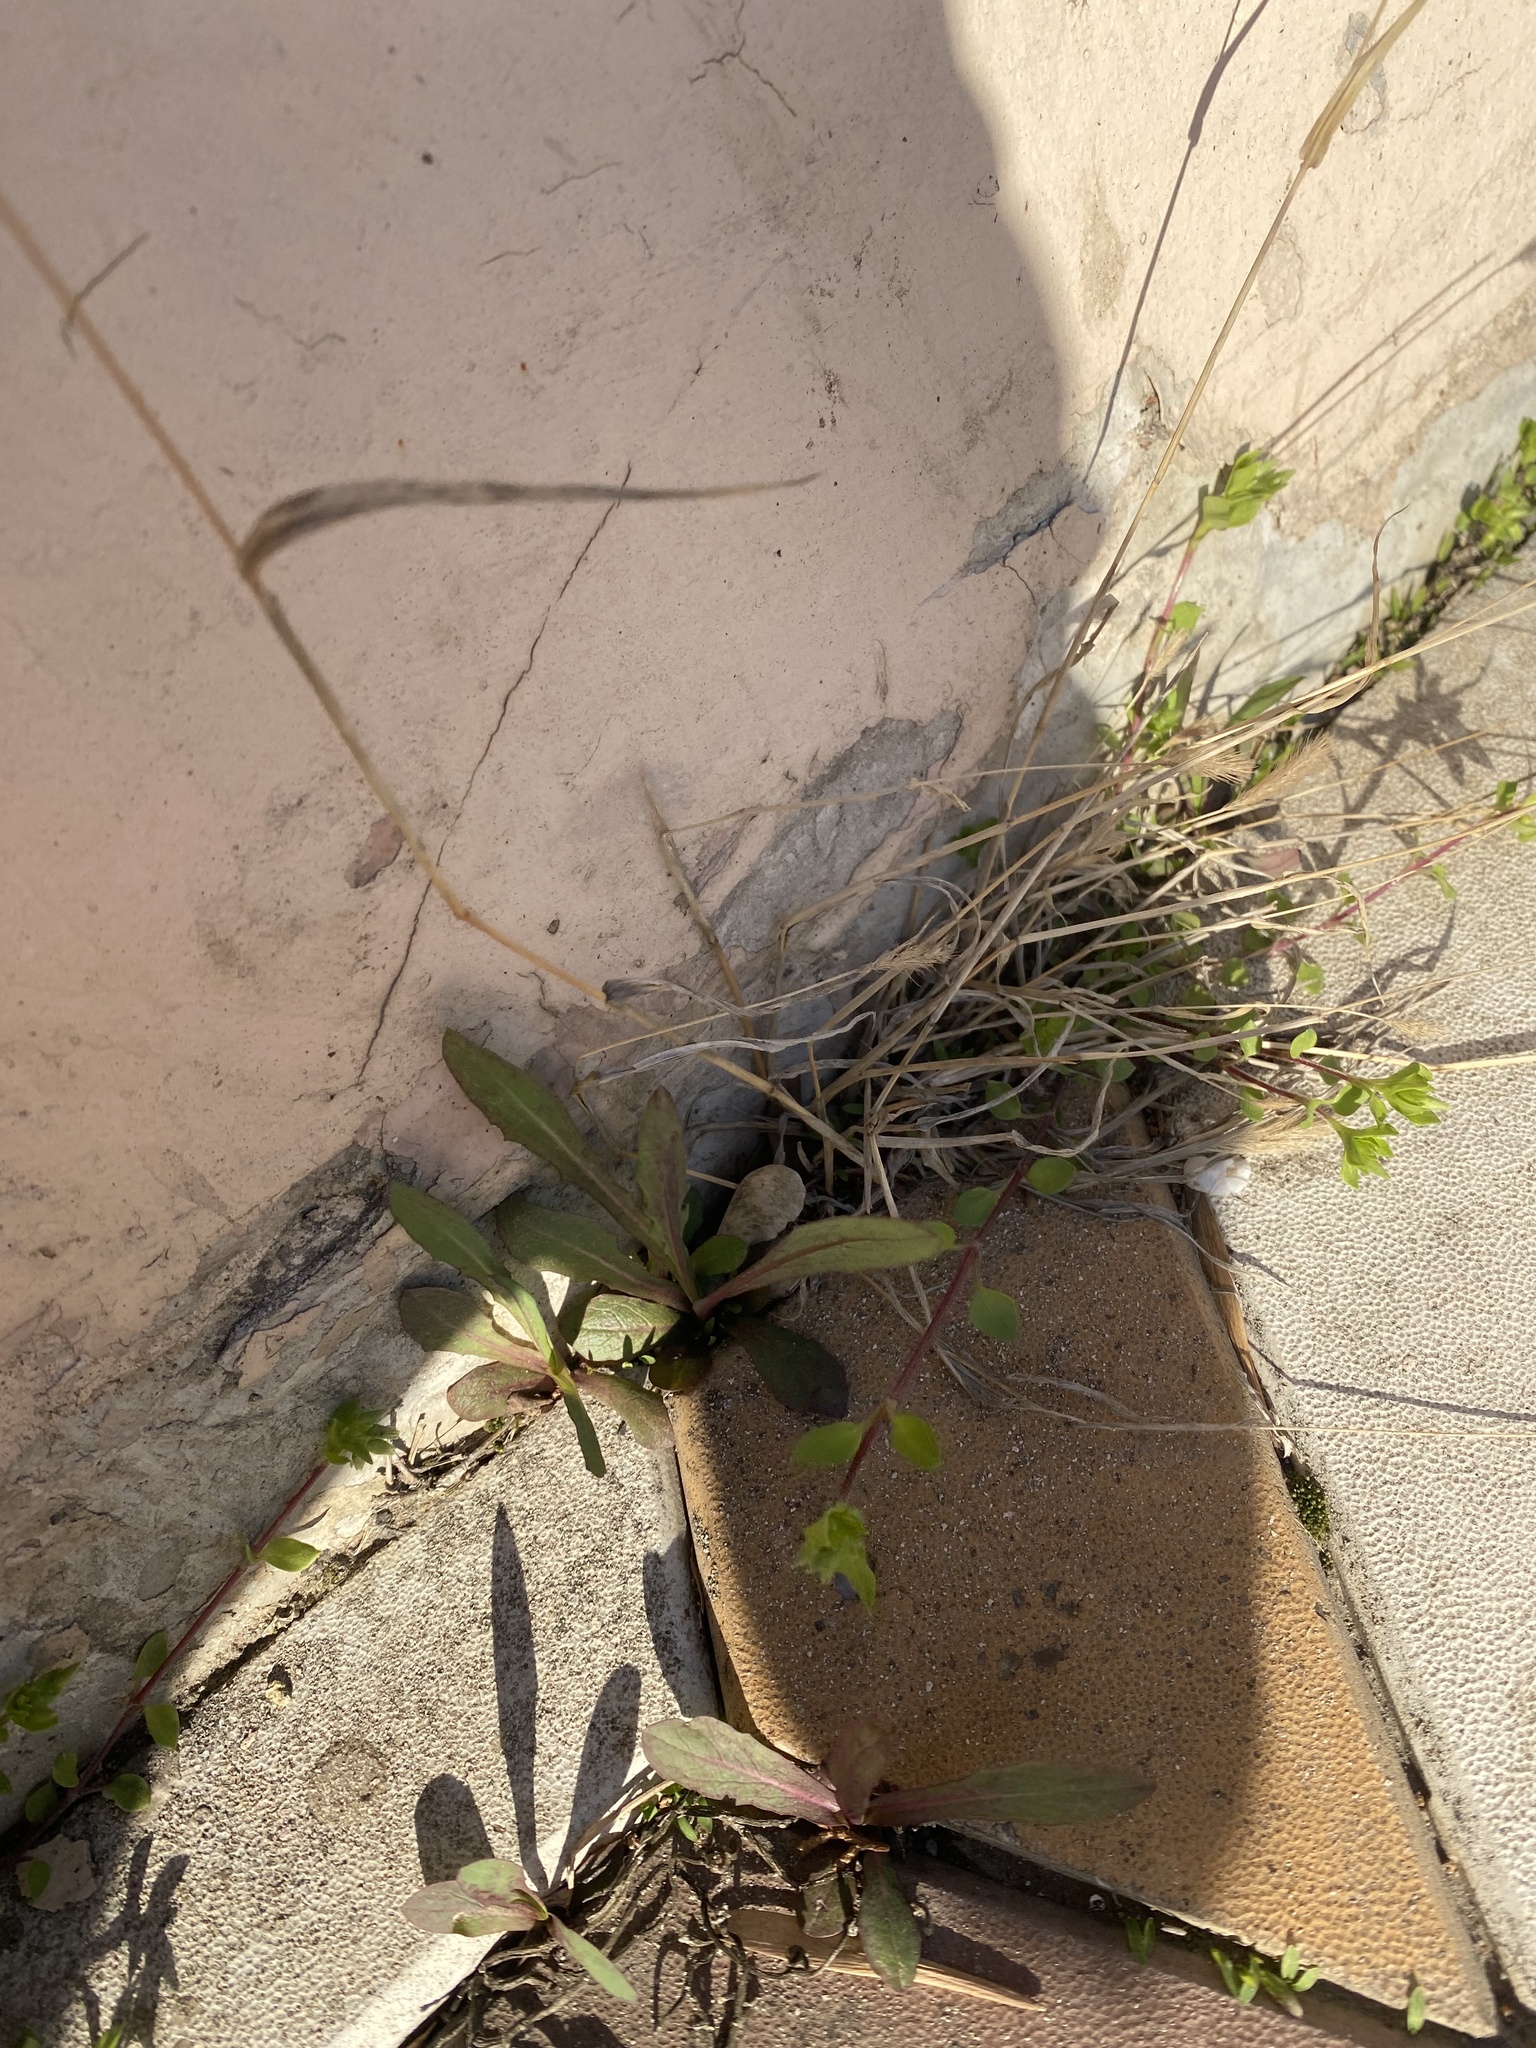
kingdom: Plantae
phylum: Tracheophyta
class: Liliopsida
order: Poales
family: Poaceae
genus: Setaria
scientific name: Setaria viridis
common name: Green bristlegrass
